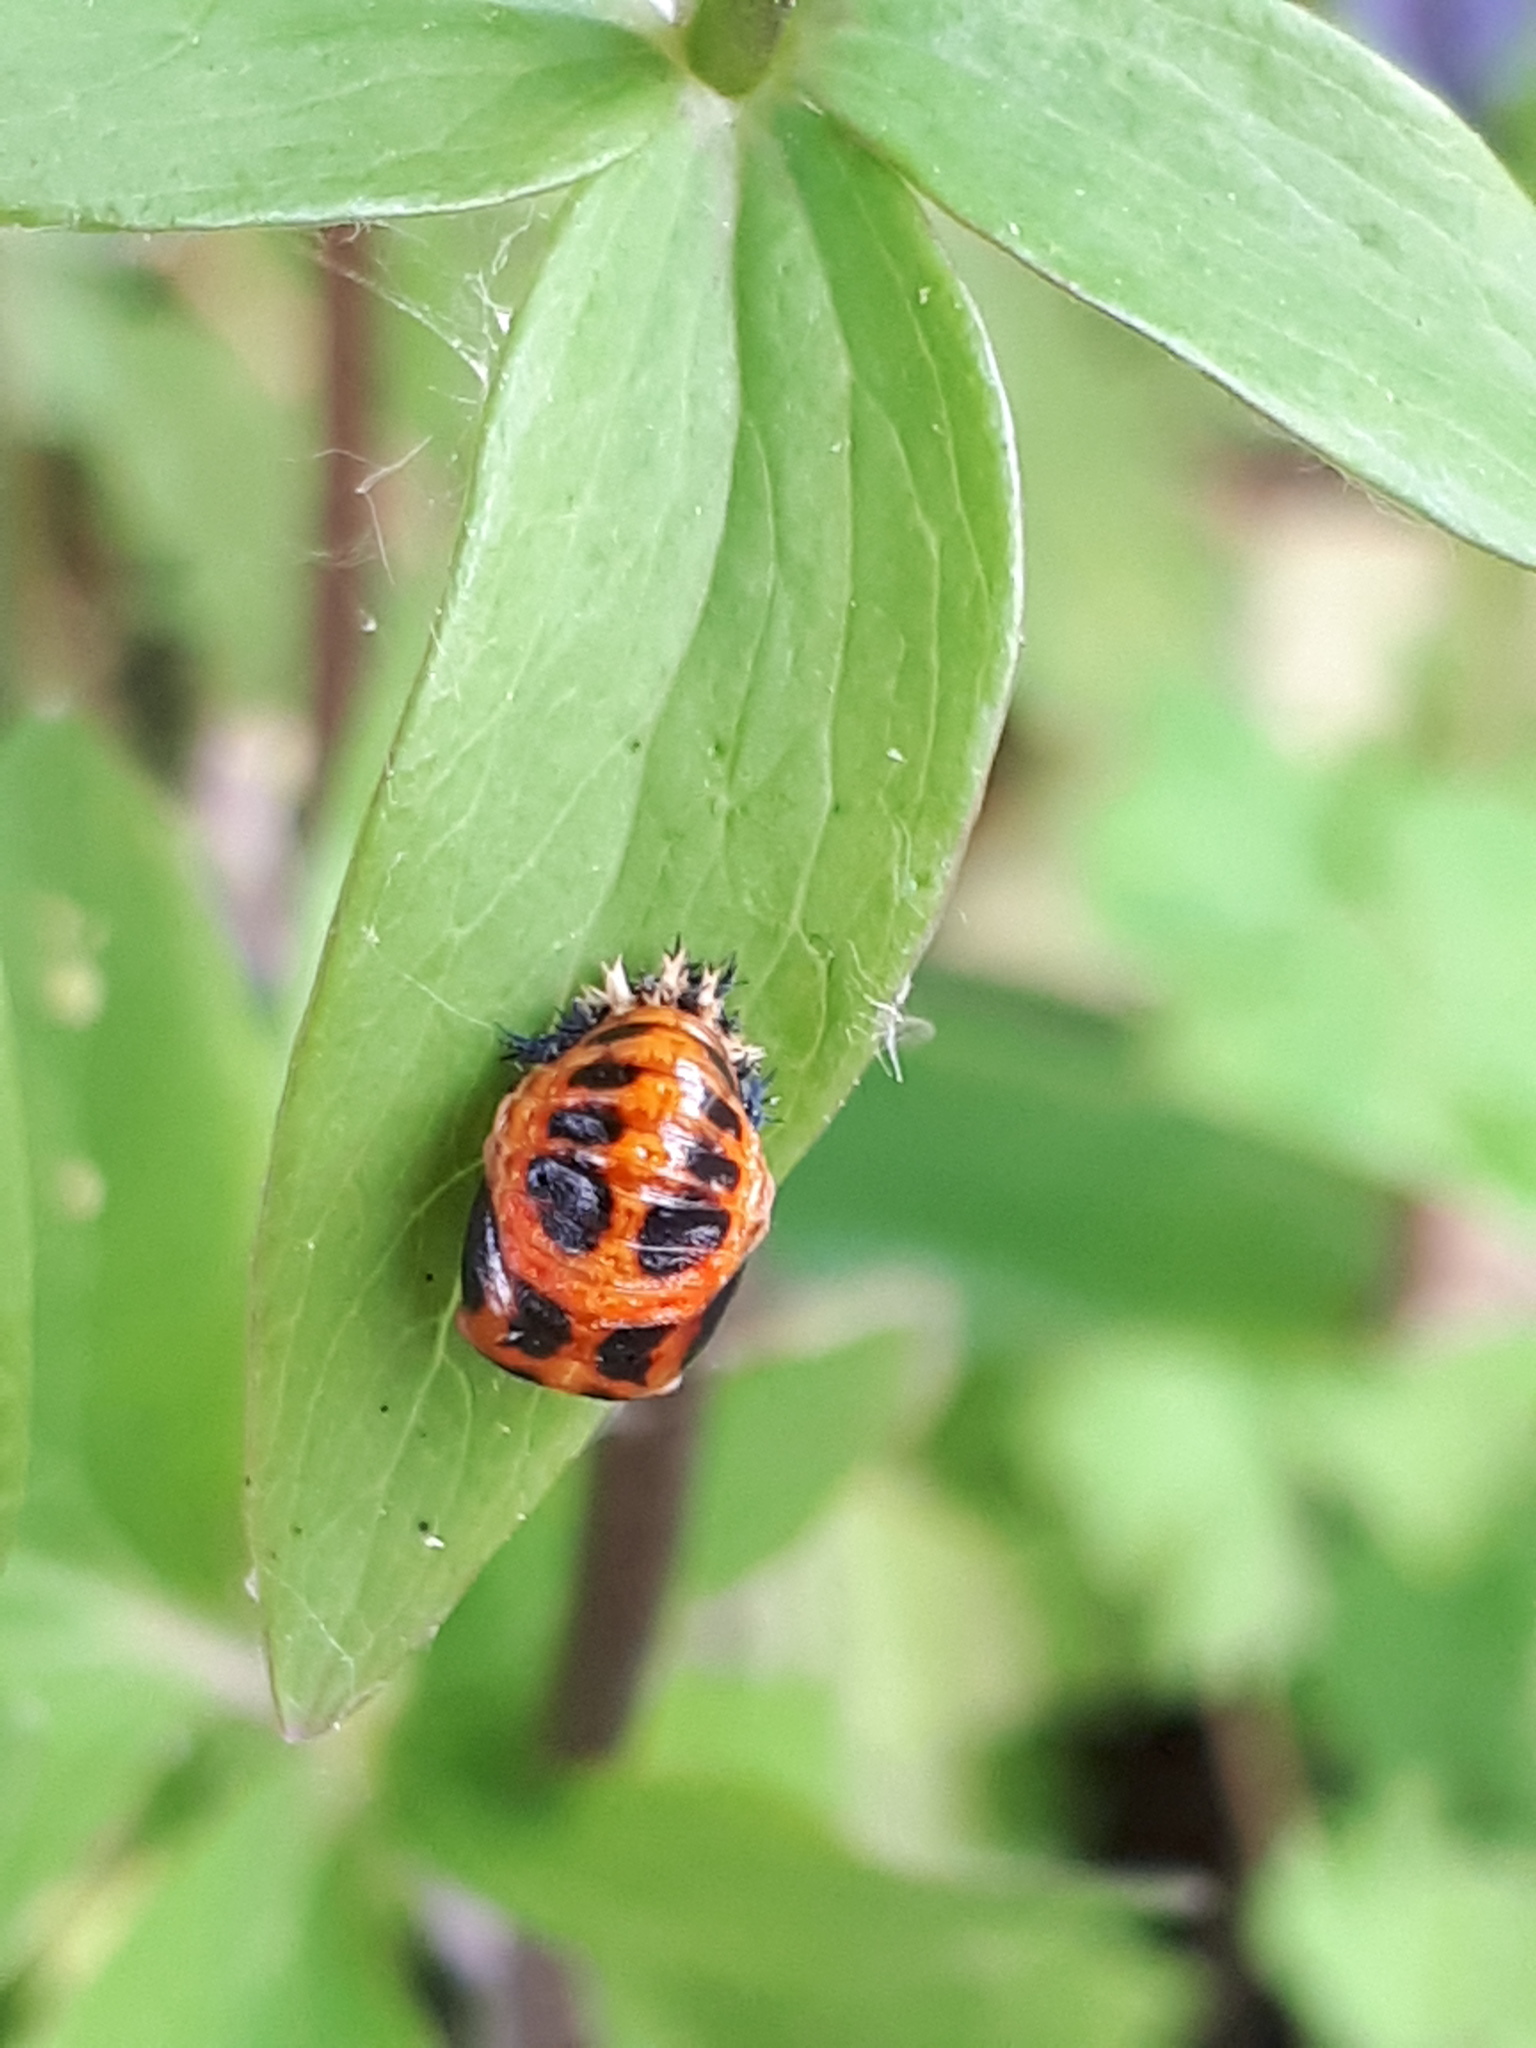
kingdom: Animalia
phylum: Arthropoda
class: Insecta
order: Coleoptera
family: Coccinellidae
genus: Harmonia
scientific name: Harmonia axyridis
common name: Harlequin ladybird
